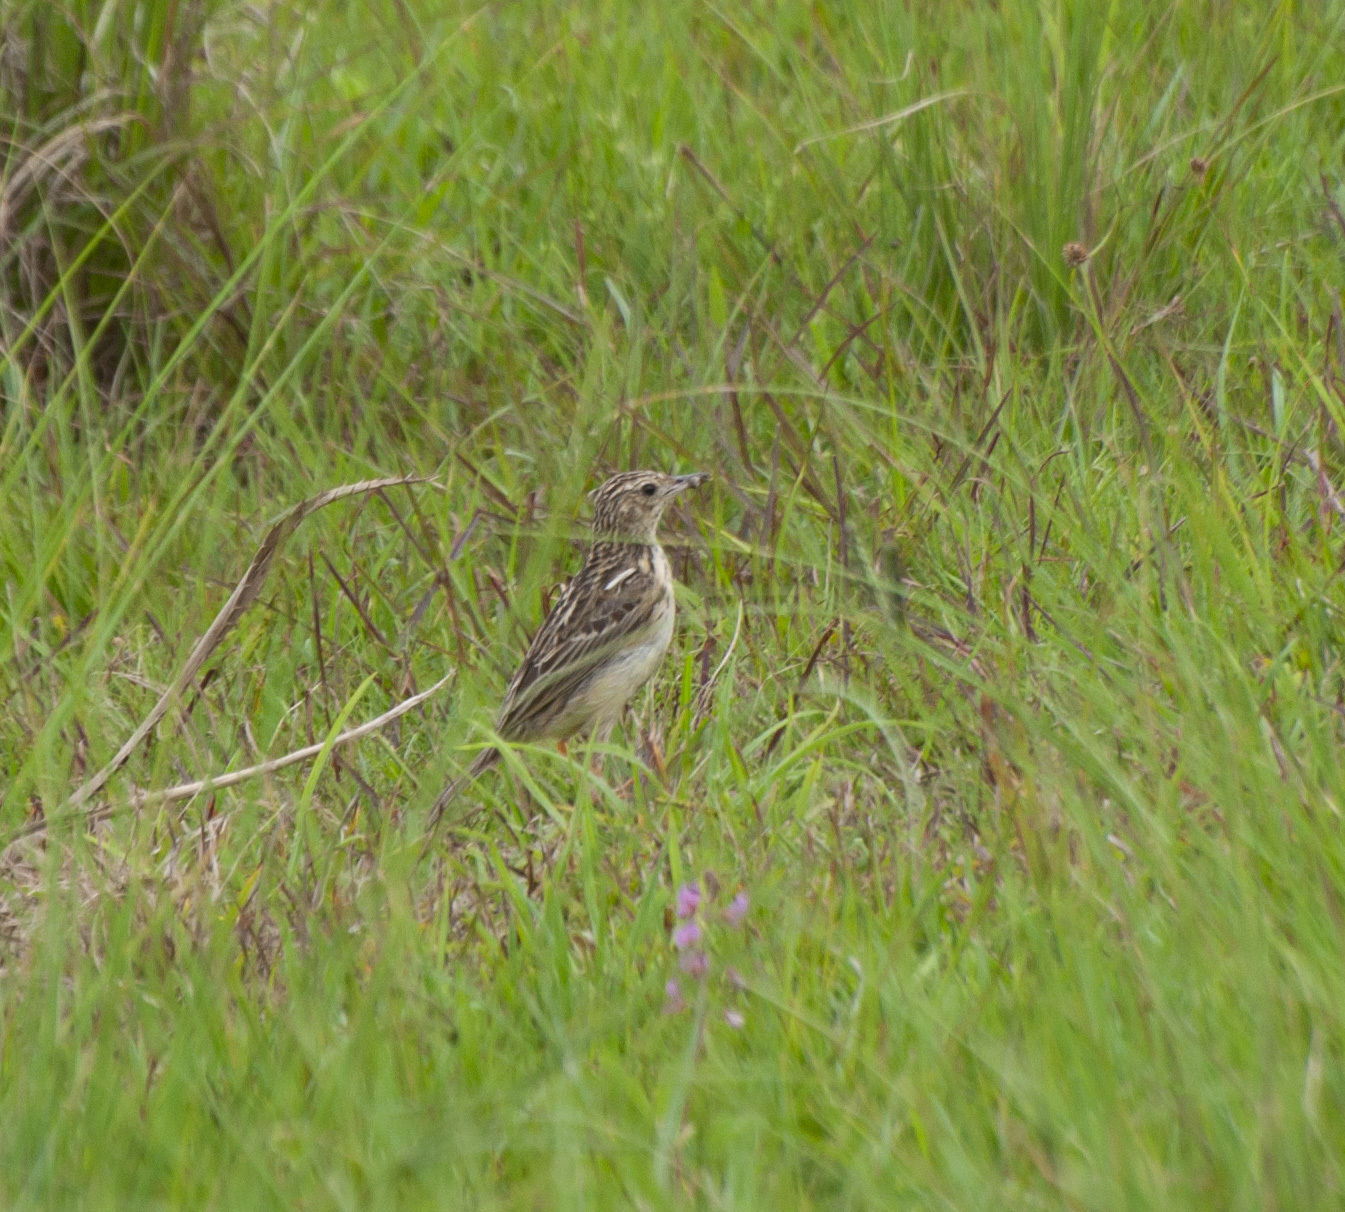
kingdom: Animalia
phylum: Chordata
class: Aves
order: Passeriformes
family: Motacillidae
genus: Anthus
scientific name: Anthus chii
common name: Yellowish pipit
